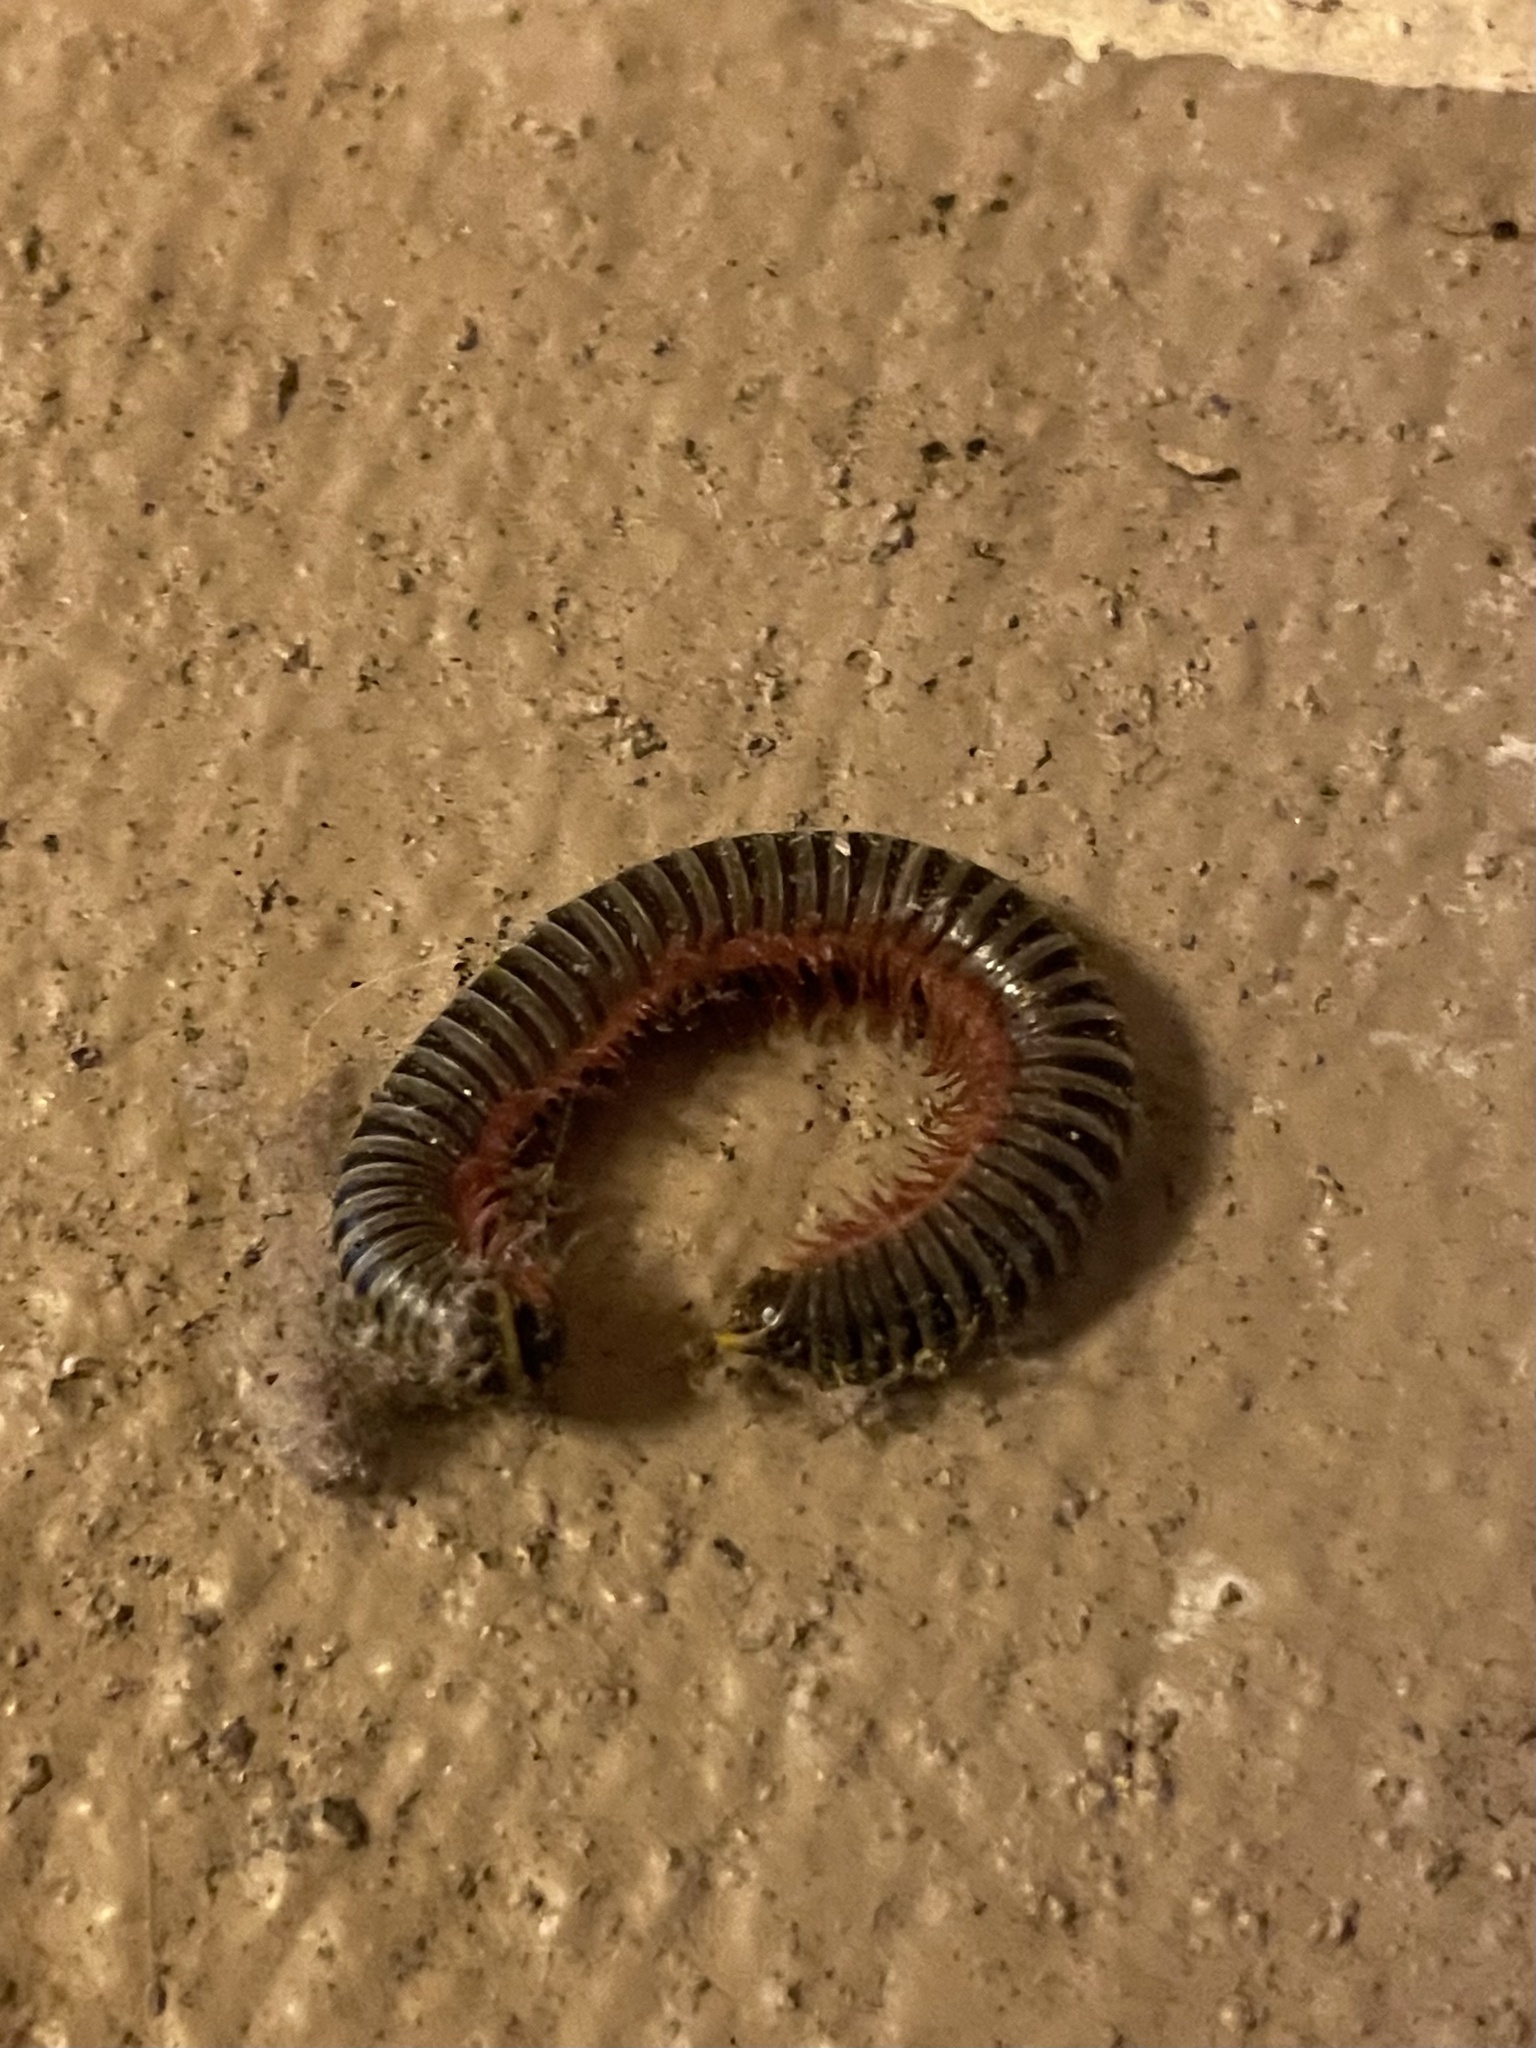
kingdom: Animalia
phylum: Arthropoda
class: Diplopoda
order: Spirobolida
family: Rhinocricidae
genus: Anadenobolus
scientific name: Anadenobolus monilicornis
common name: Caribbean millipede
